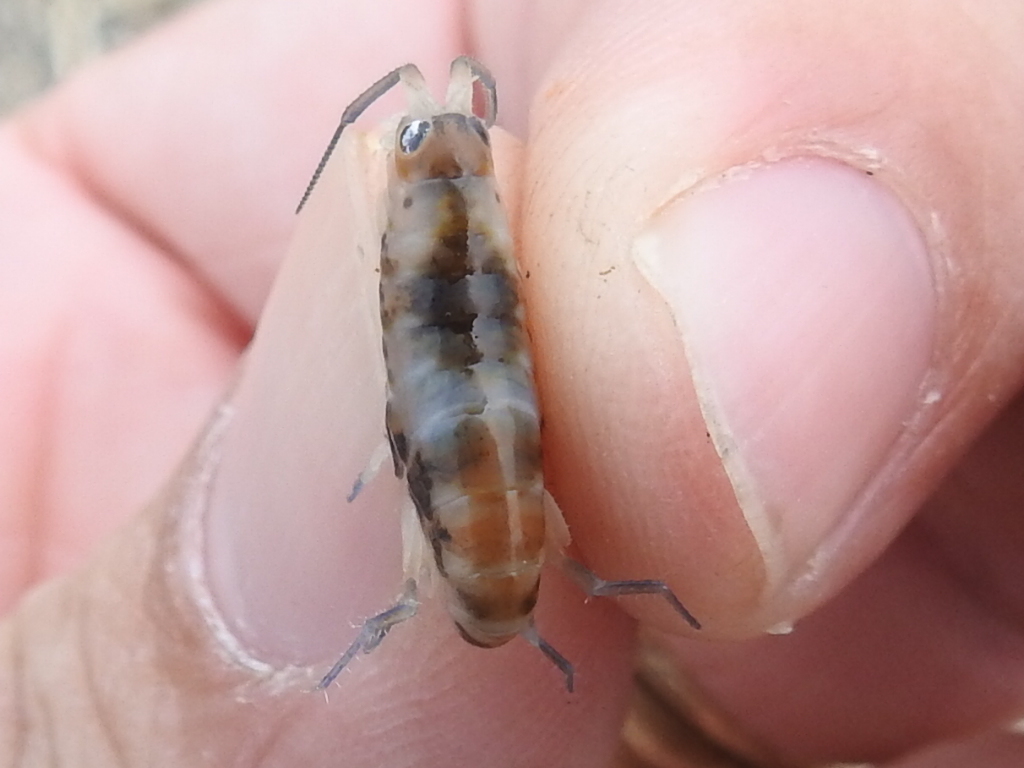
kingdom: Animalia
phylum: Arthropoda
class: Malacostraca
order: Amphipoda
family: Talitridae
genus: Megalorchestia
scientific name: Megalorchestia benedicti
